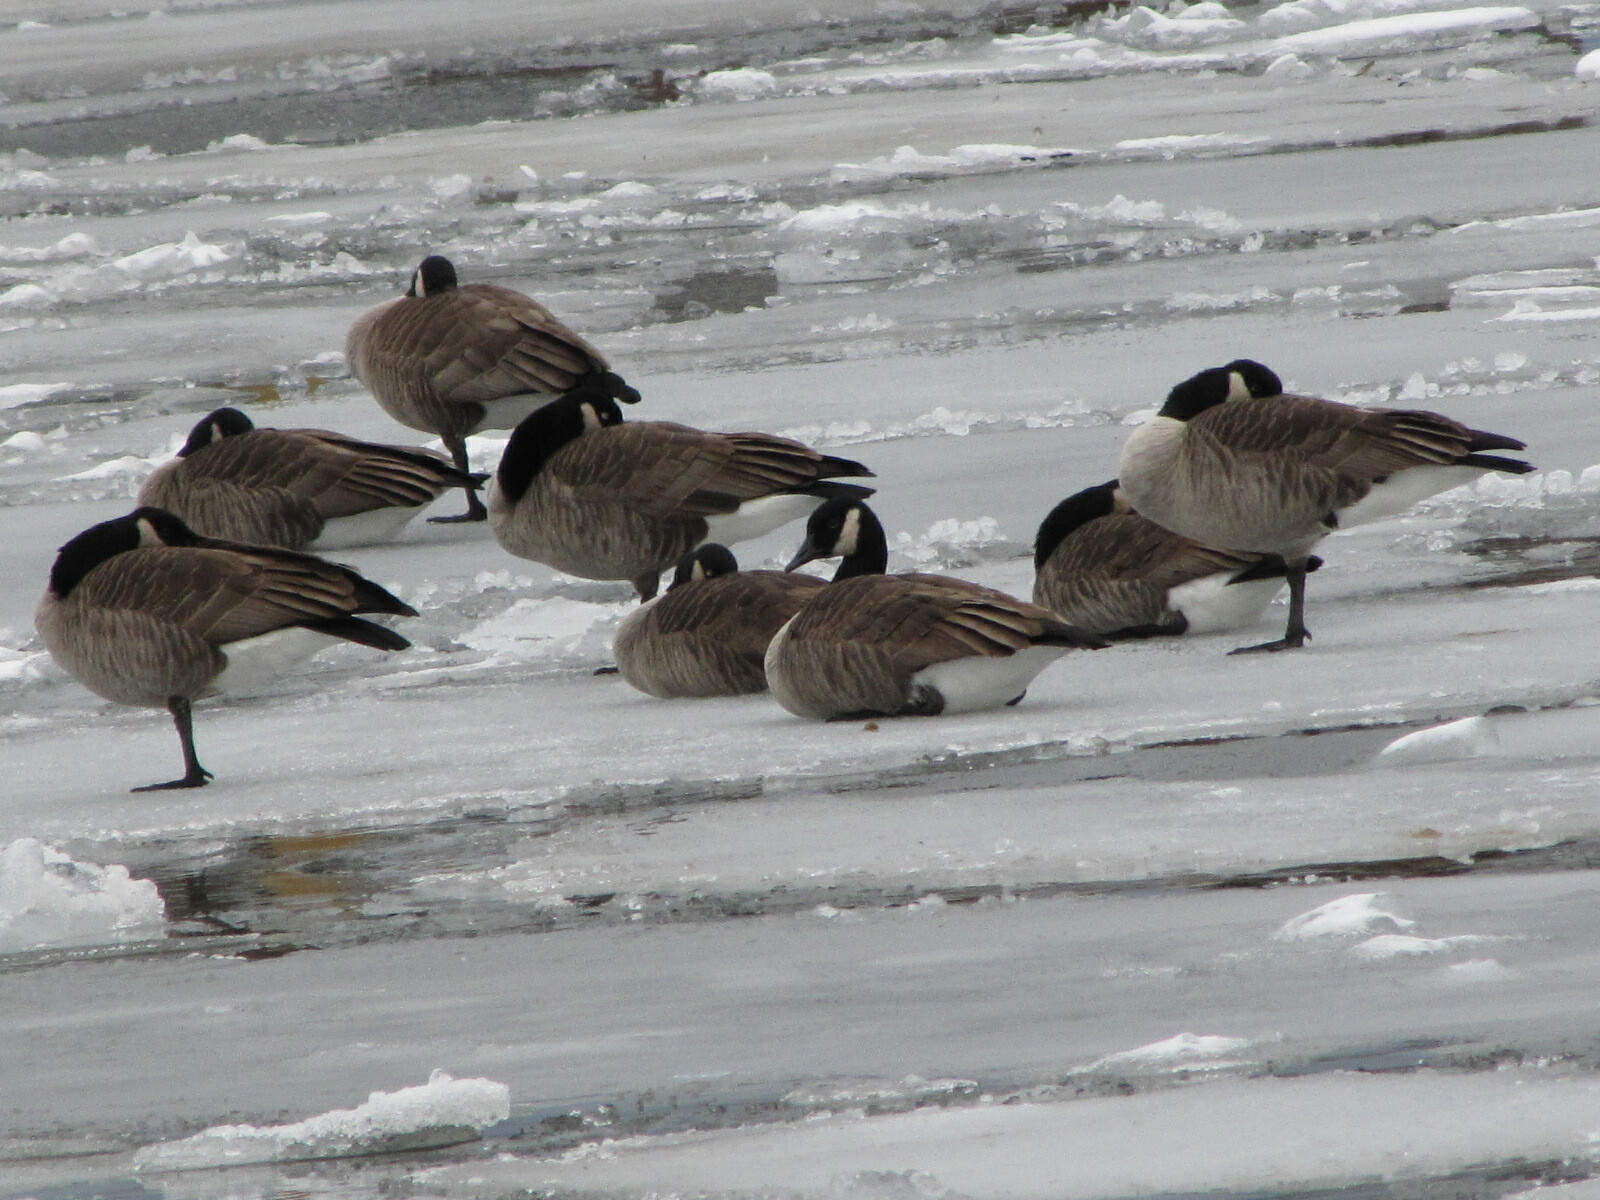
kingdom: Animalia
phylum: Chordata
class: Aves
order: Anseriformes
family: Anatidae
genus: Branta
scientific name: Branta canadensis
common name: Canada goose
